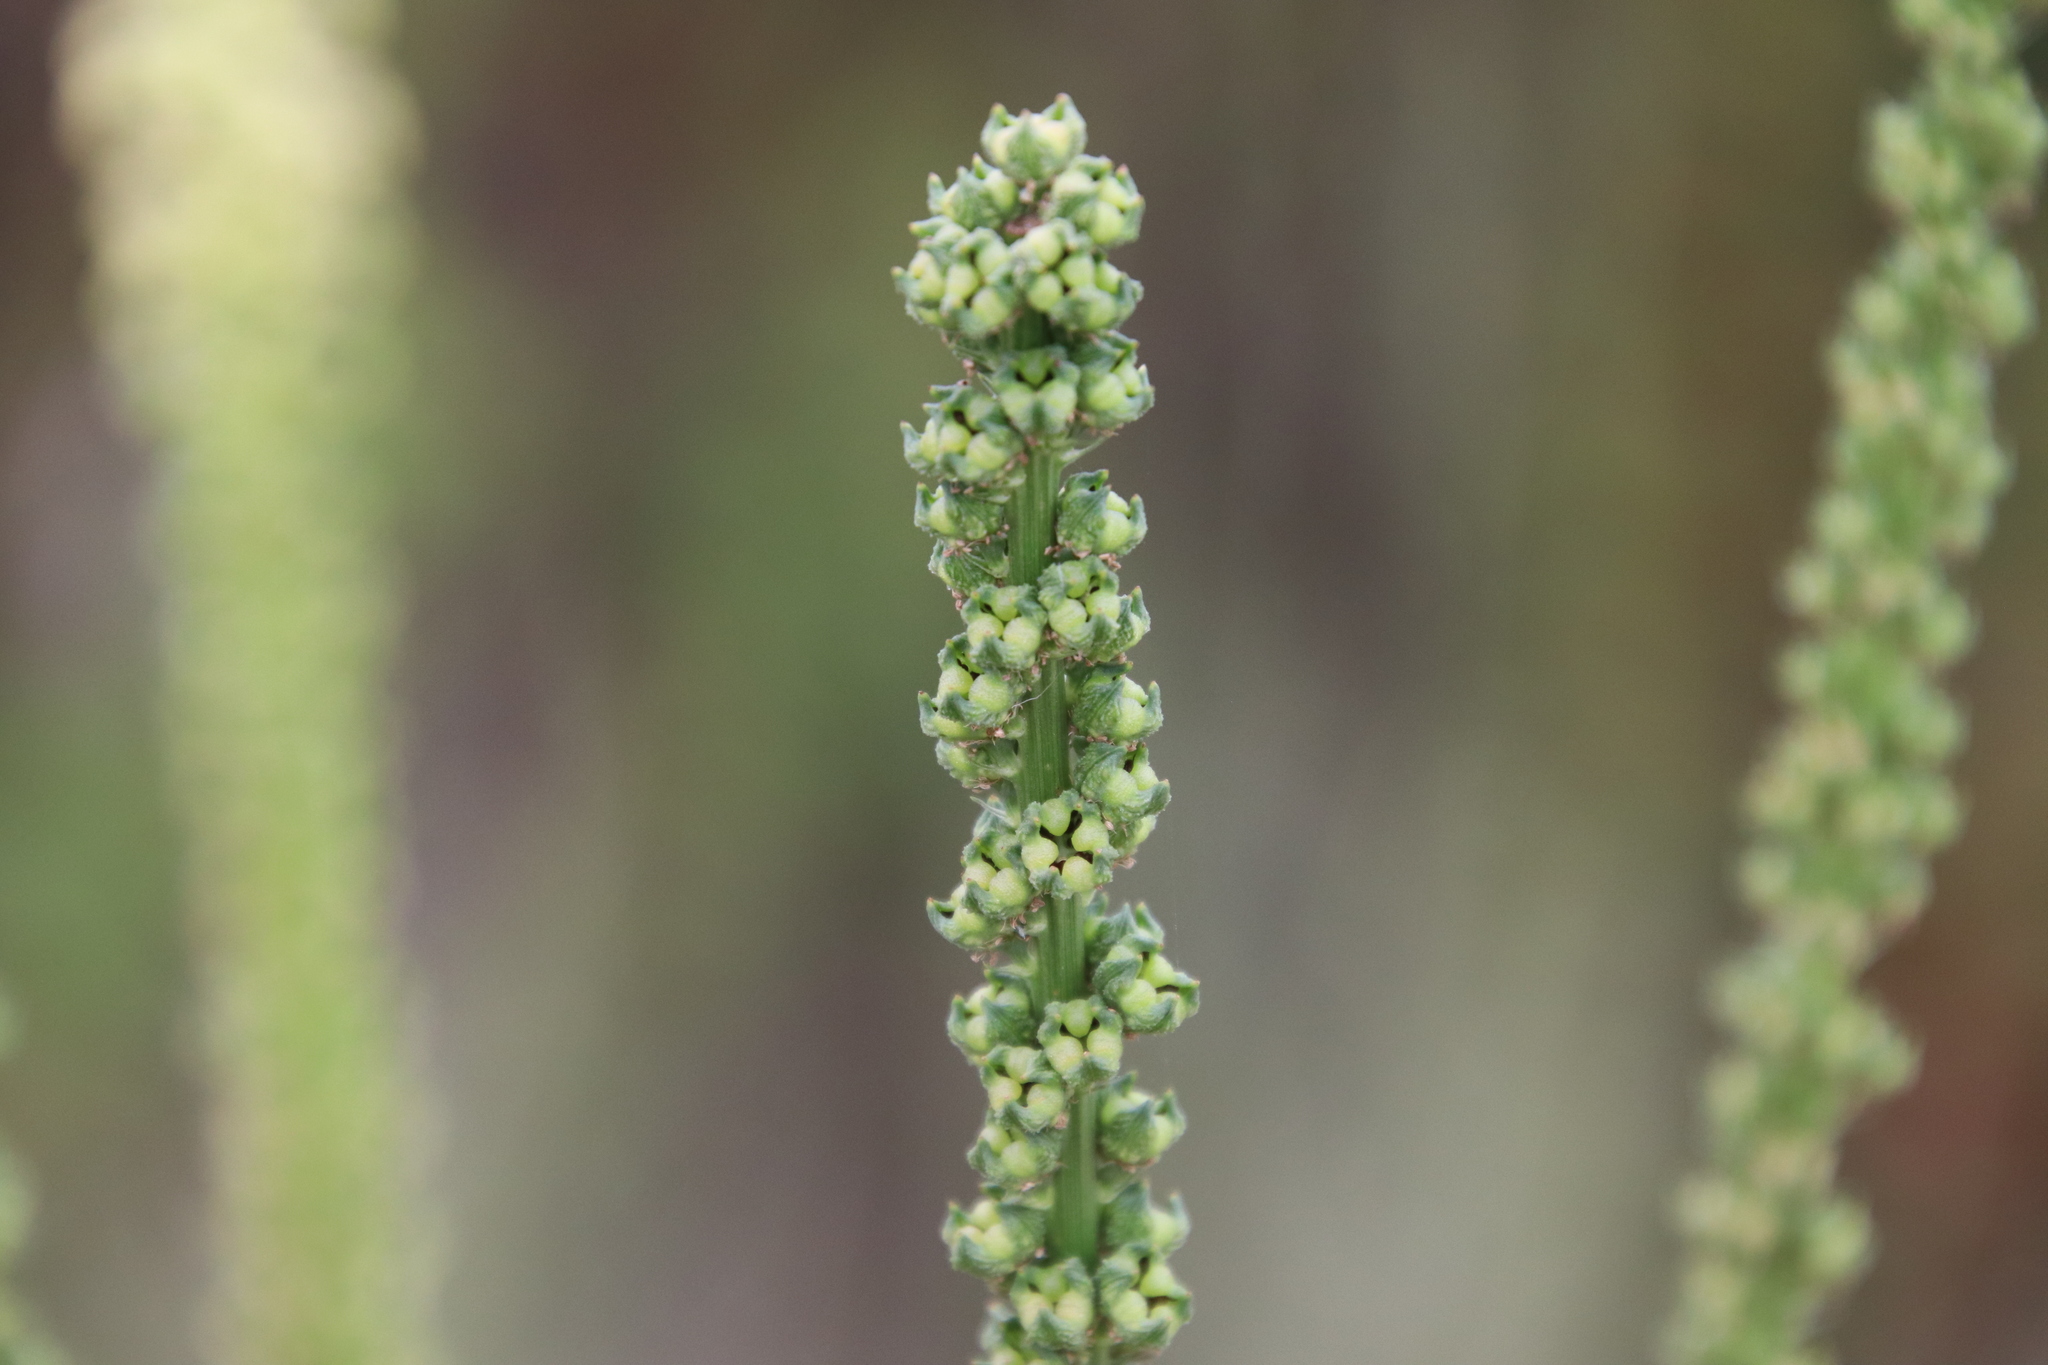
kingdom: Plantae
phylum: Tracheophyta
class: Magnoliopsida
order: Brassicales
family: Resedaceae
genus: Reseda
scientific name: Reseda luteola
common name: Weld
